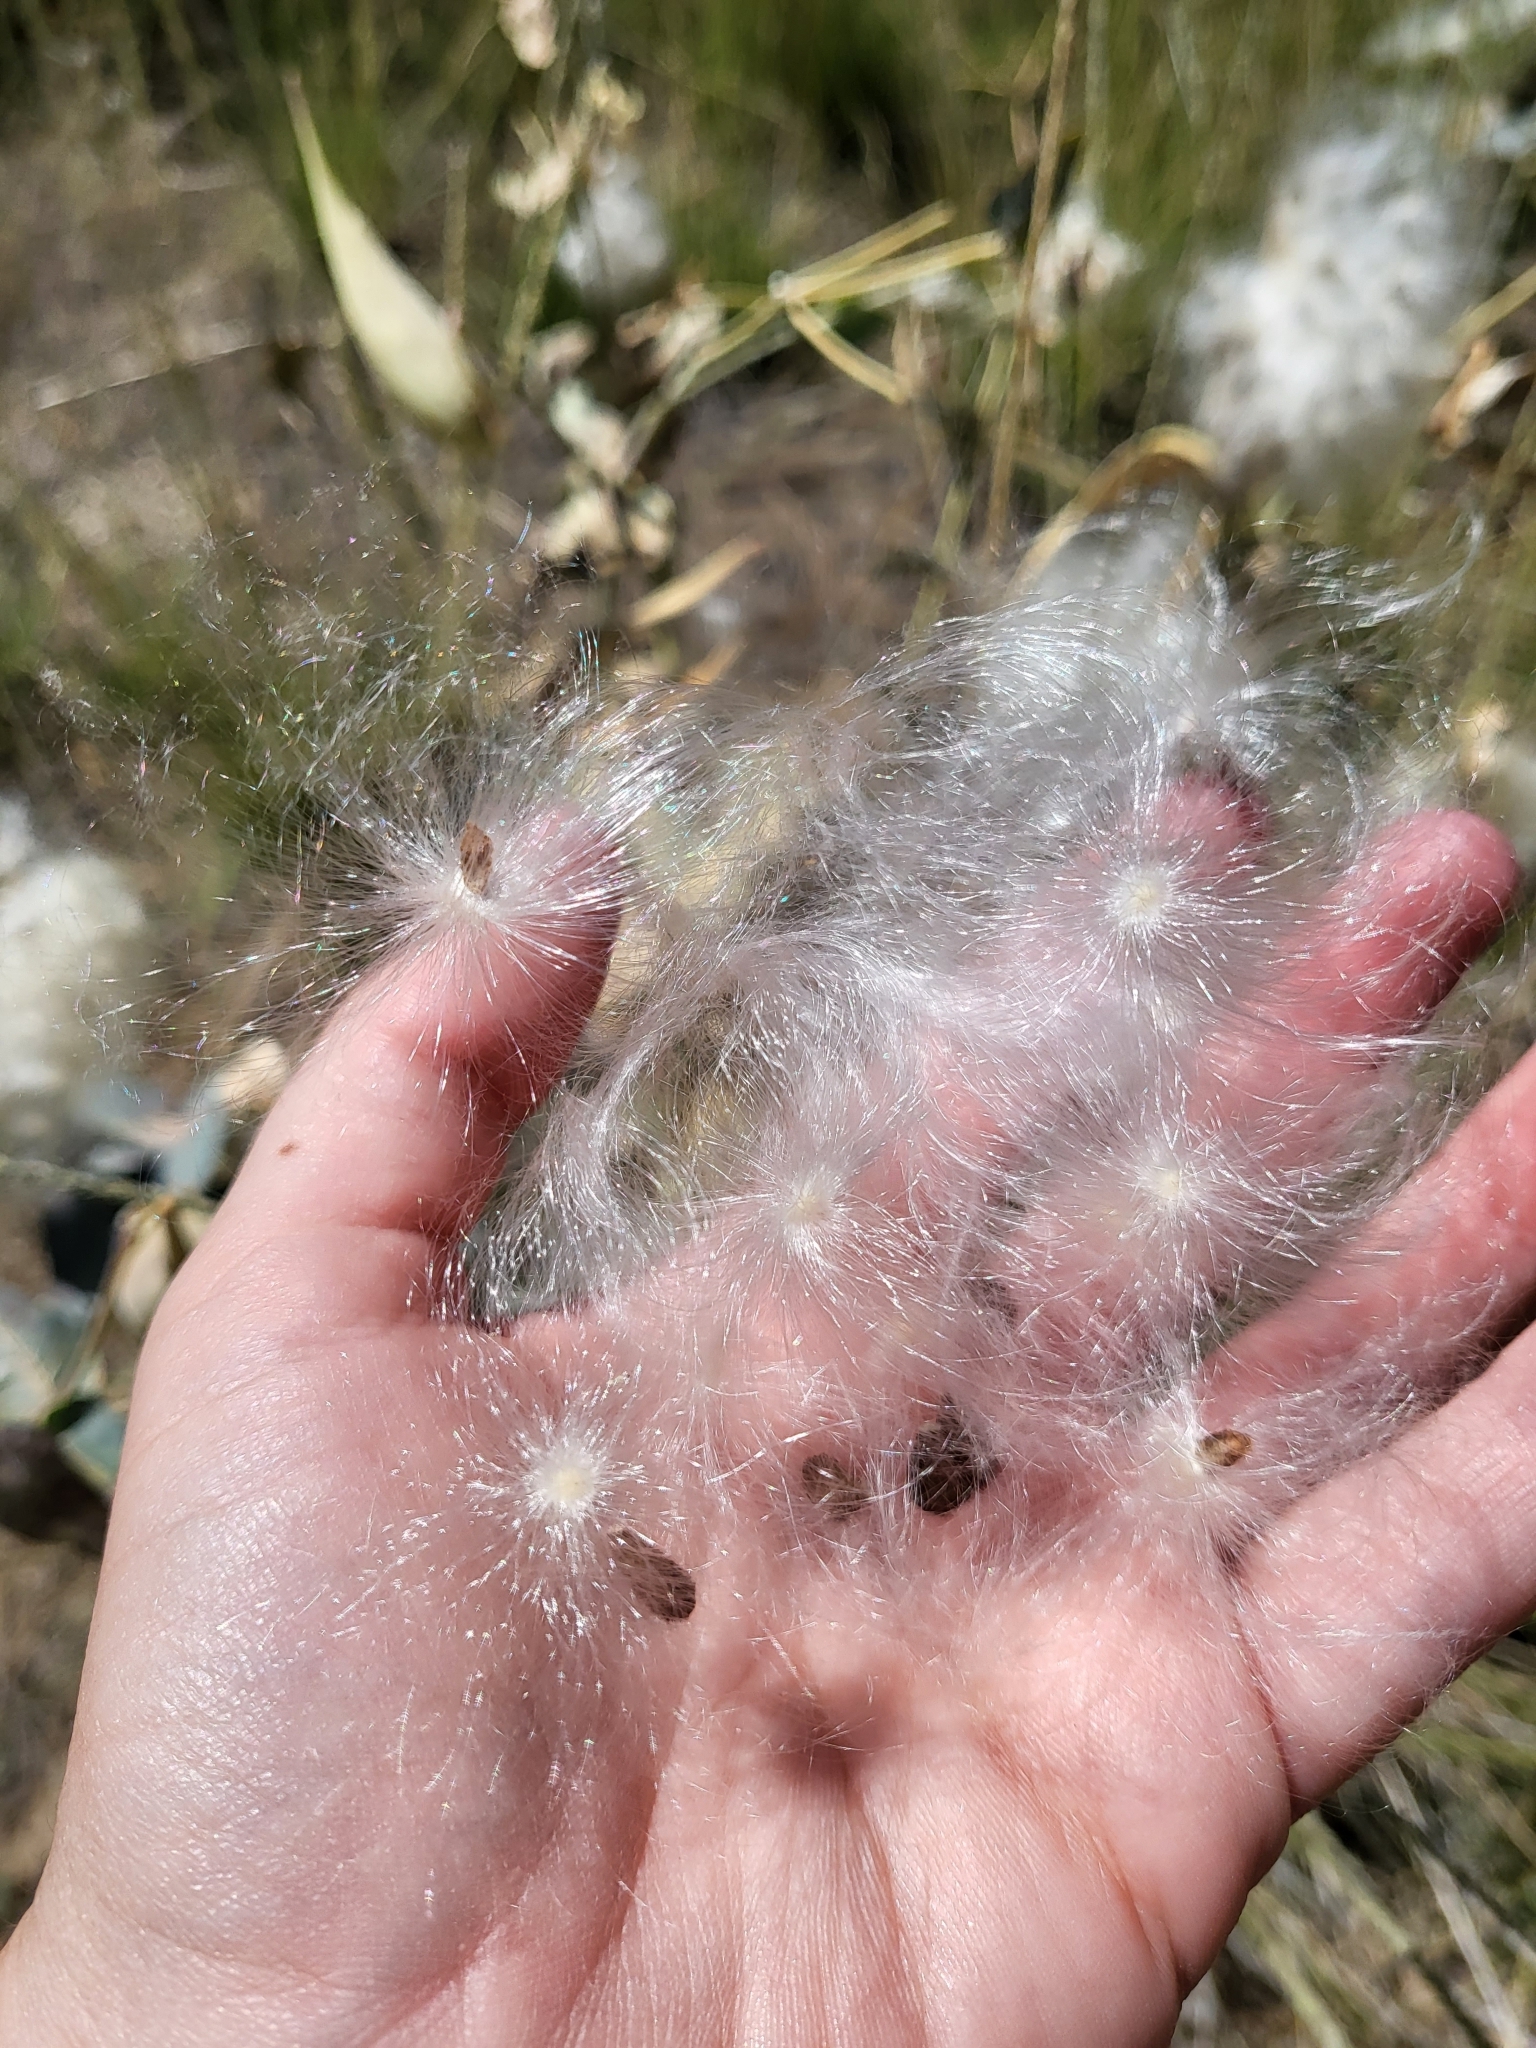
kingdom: Plantae
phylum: Tracheophyta
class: Magnoliopsida
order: Gentianales
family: Apocynaceae
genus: Asclepias
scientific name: Asclepias cordifolia
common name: Purple milkweed
